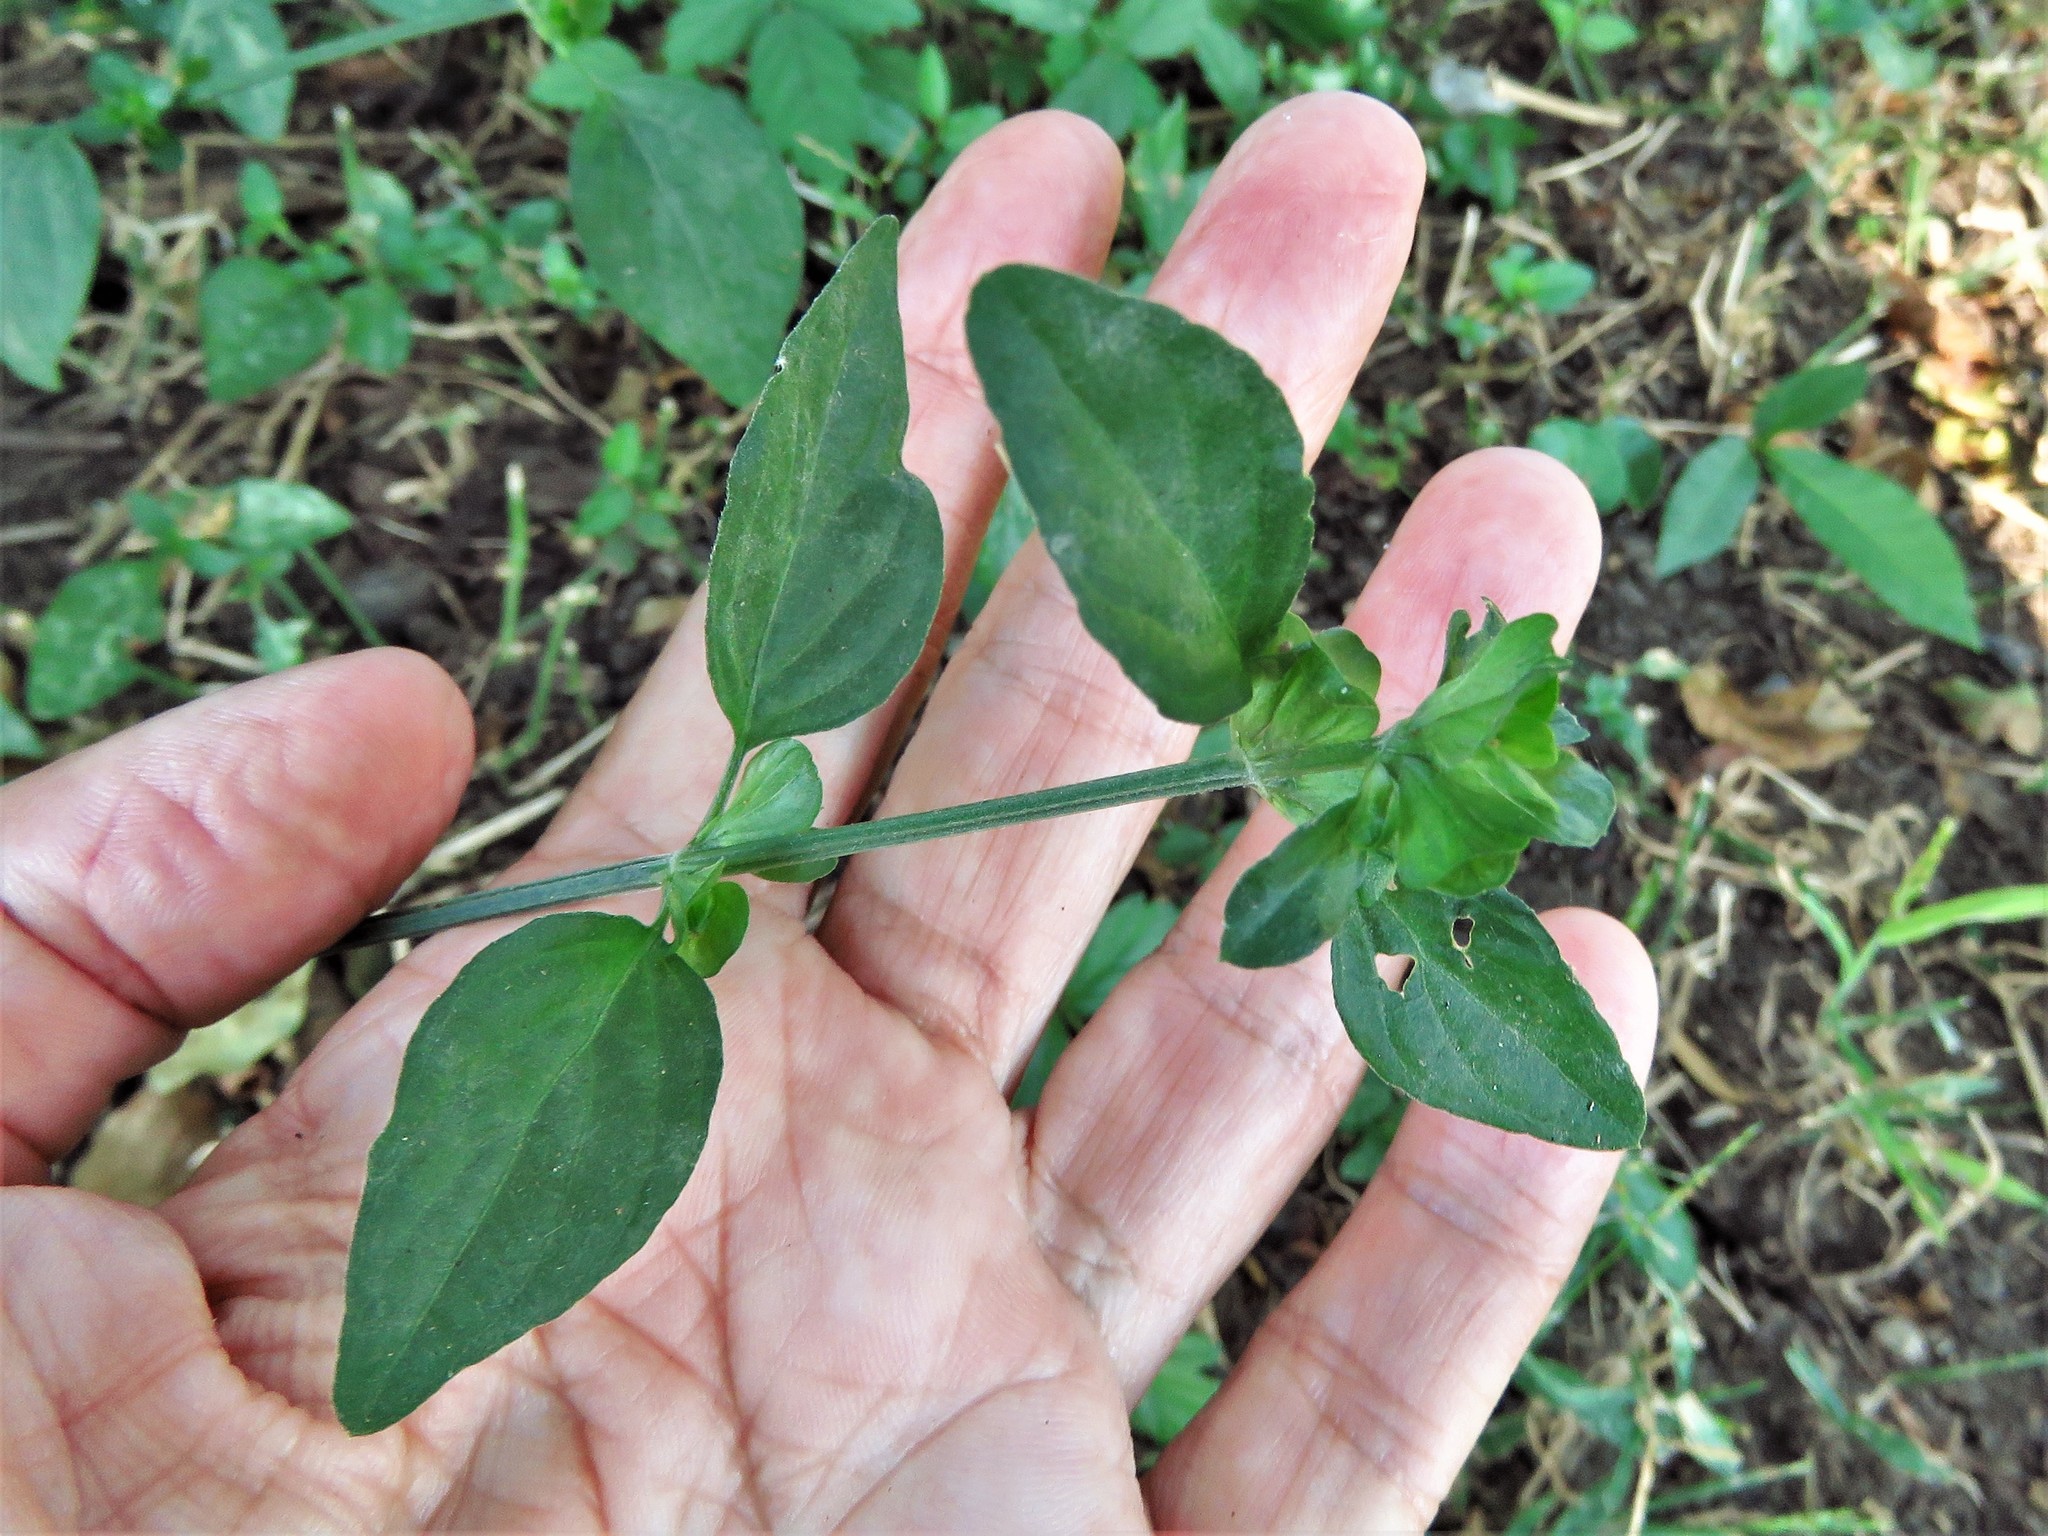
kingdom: Plantae
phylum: Tracheophyta
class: Magnoliopsida
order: Lamiales
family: Acanthaceae
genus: Dicliptera
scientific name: Dicliptera brachiata
